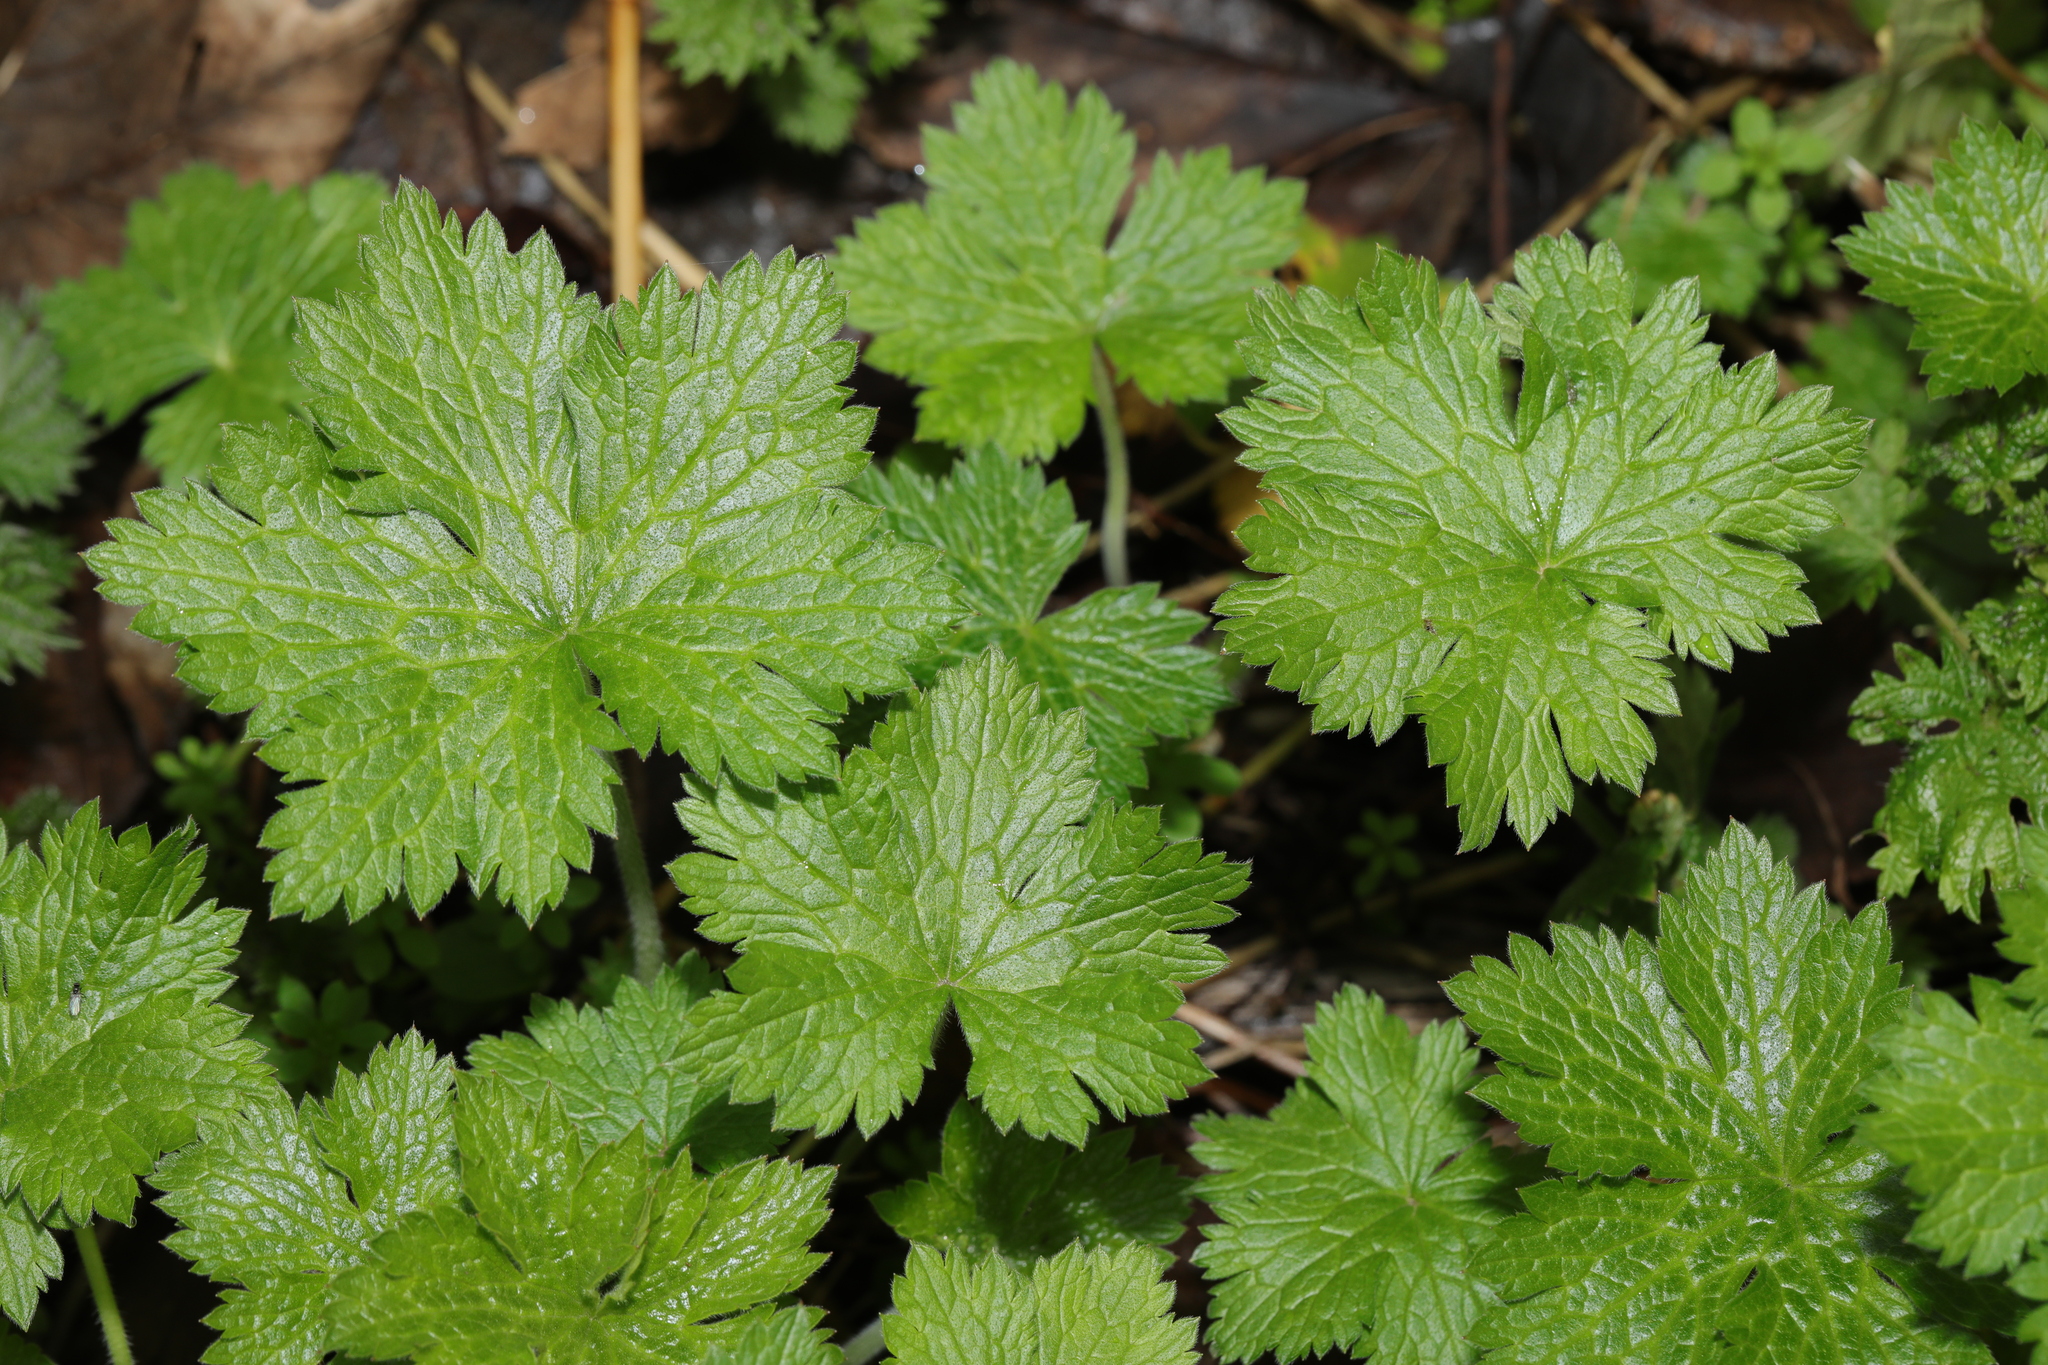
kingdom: Plantae
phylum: Tracheophyta
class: Magnoliopsida
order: Geraniales
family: Geraniaceae
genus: Geranium
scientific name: Geranium oxonianum
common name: Druce's crane's-bill
